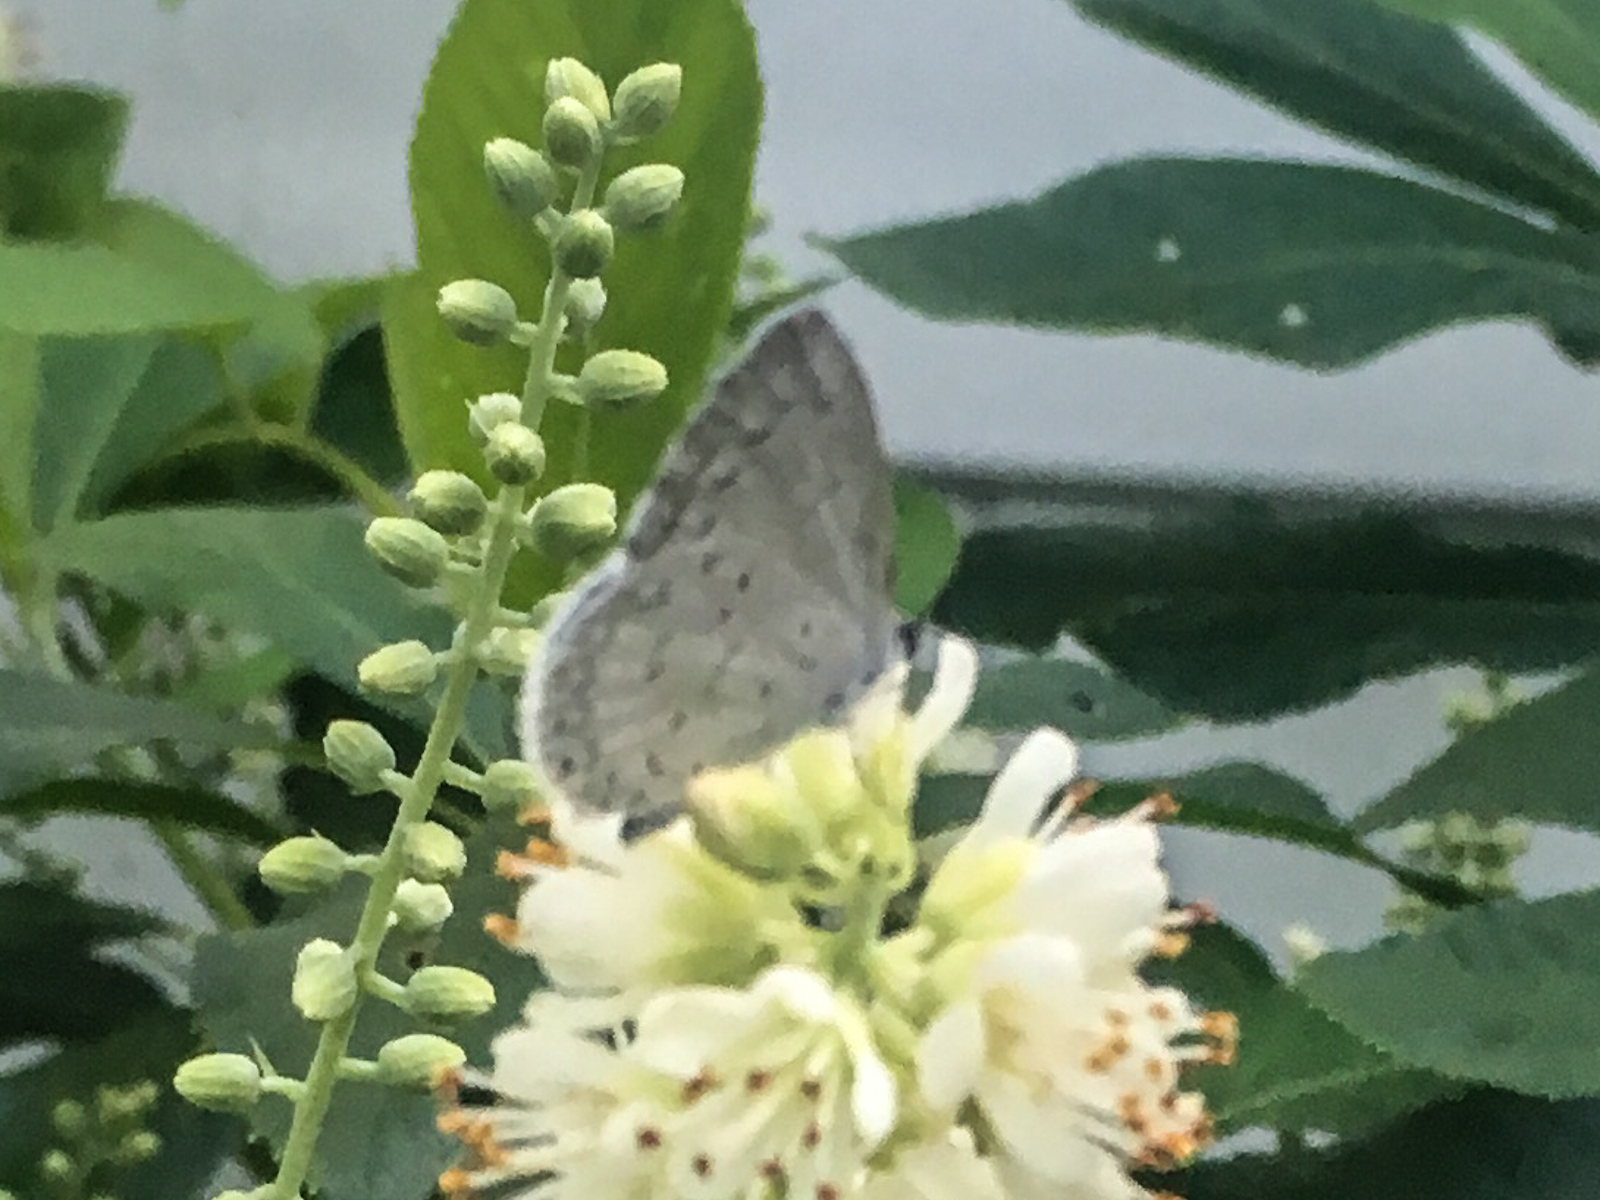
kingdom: Animalia
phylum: Arthropoda
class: Insecta
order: Lepidoptera
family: Lycaenidae
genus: Cyaniris
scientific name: Cyaniris neglecta
